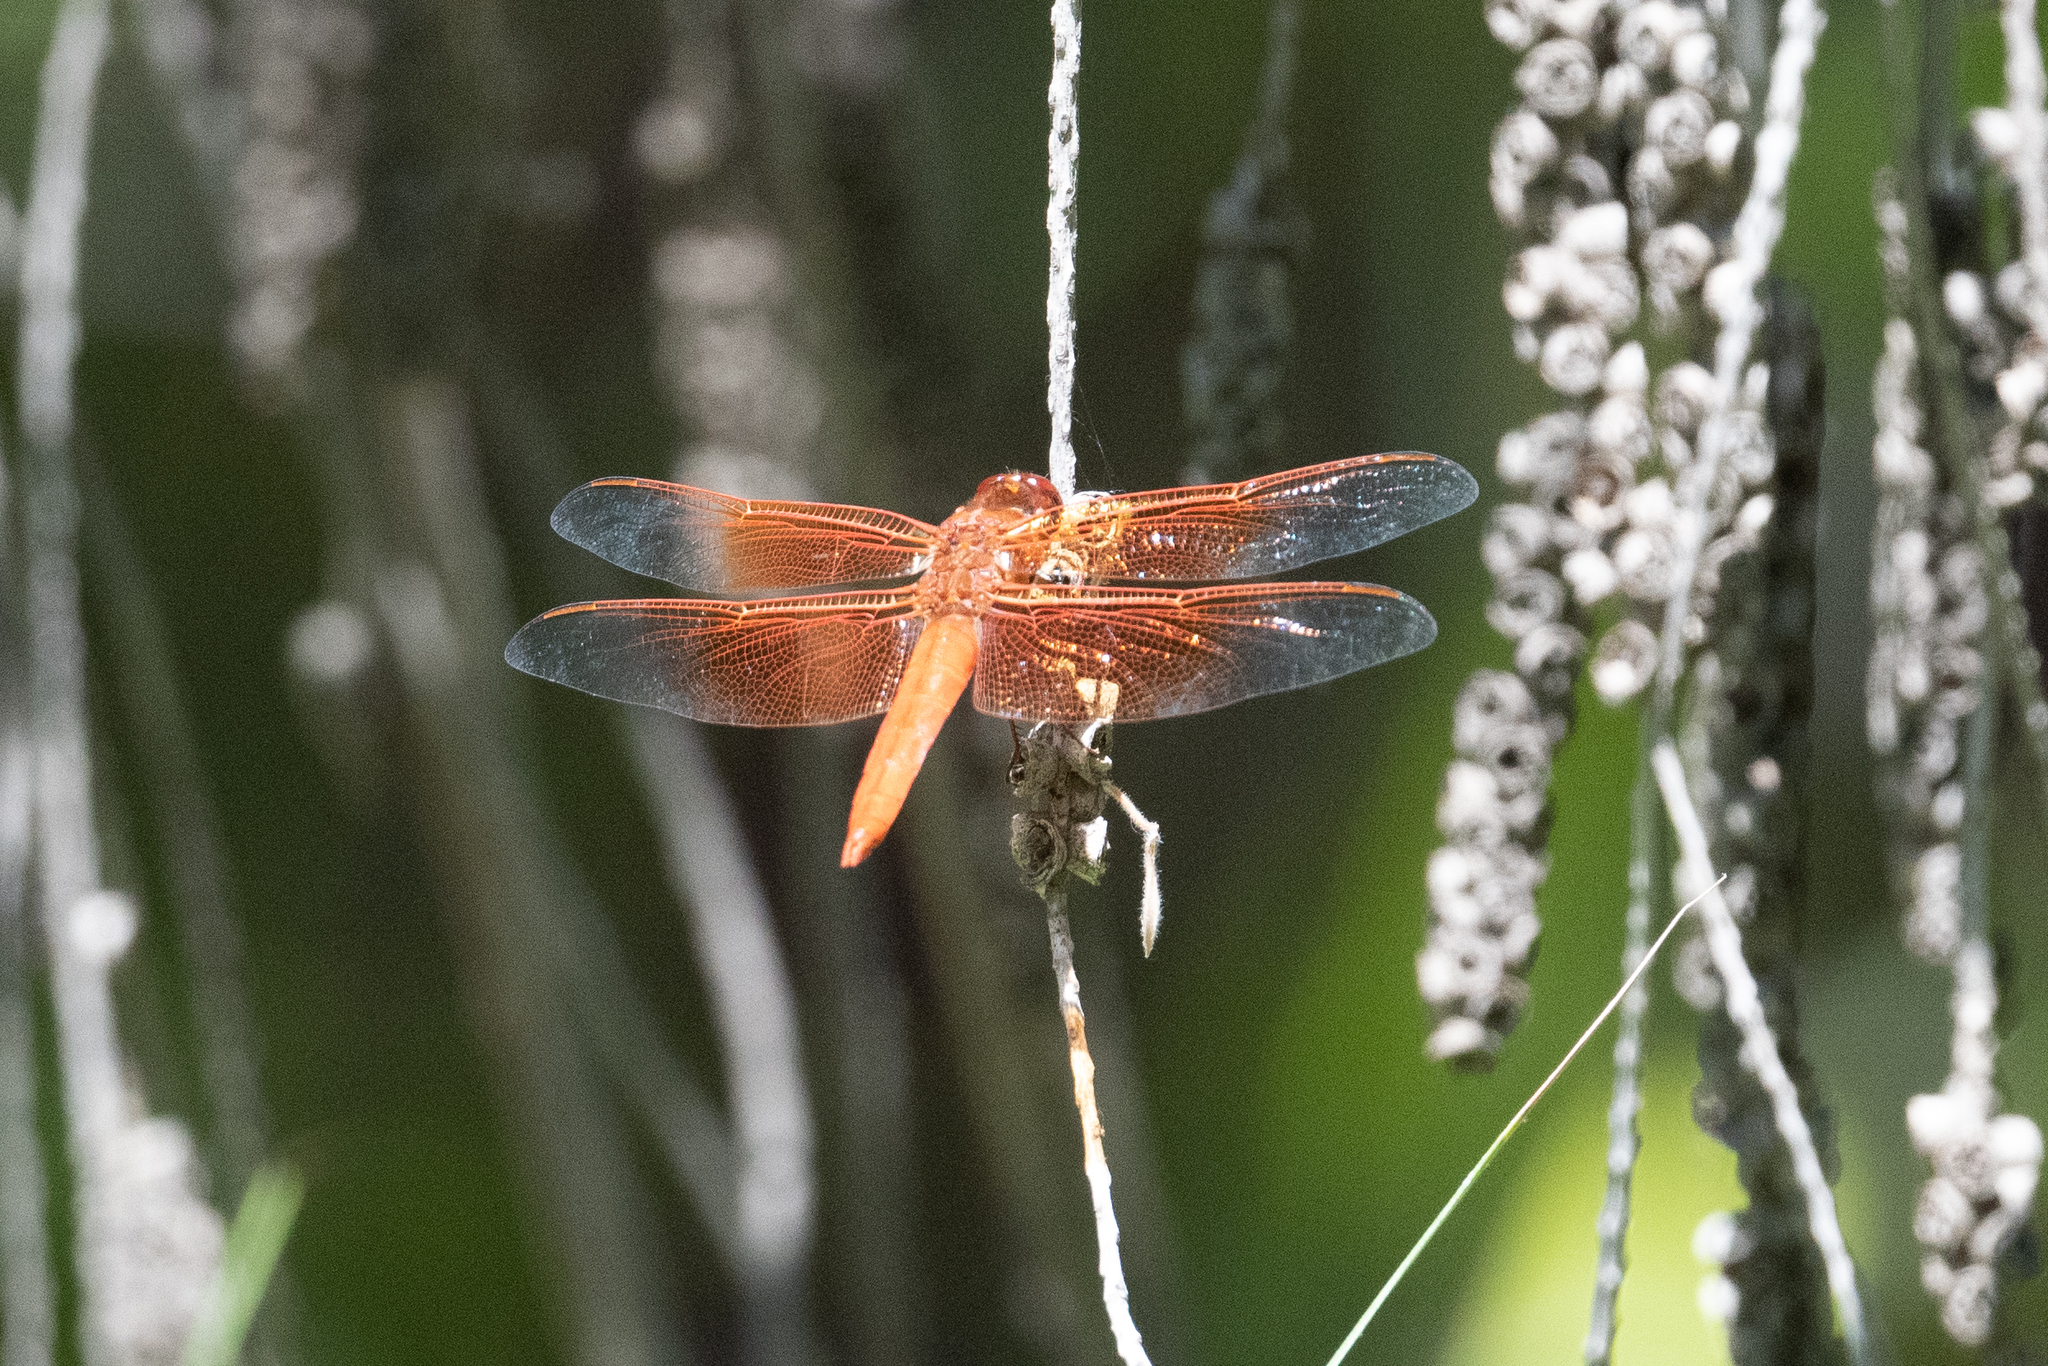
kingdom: Animalia
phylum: Arthropoda
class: Insecta
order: Odonata
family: Libellulidae
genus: Libellula
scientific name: Libellula saturata
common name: Flame skimmer
